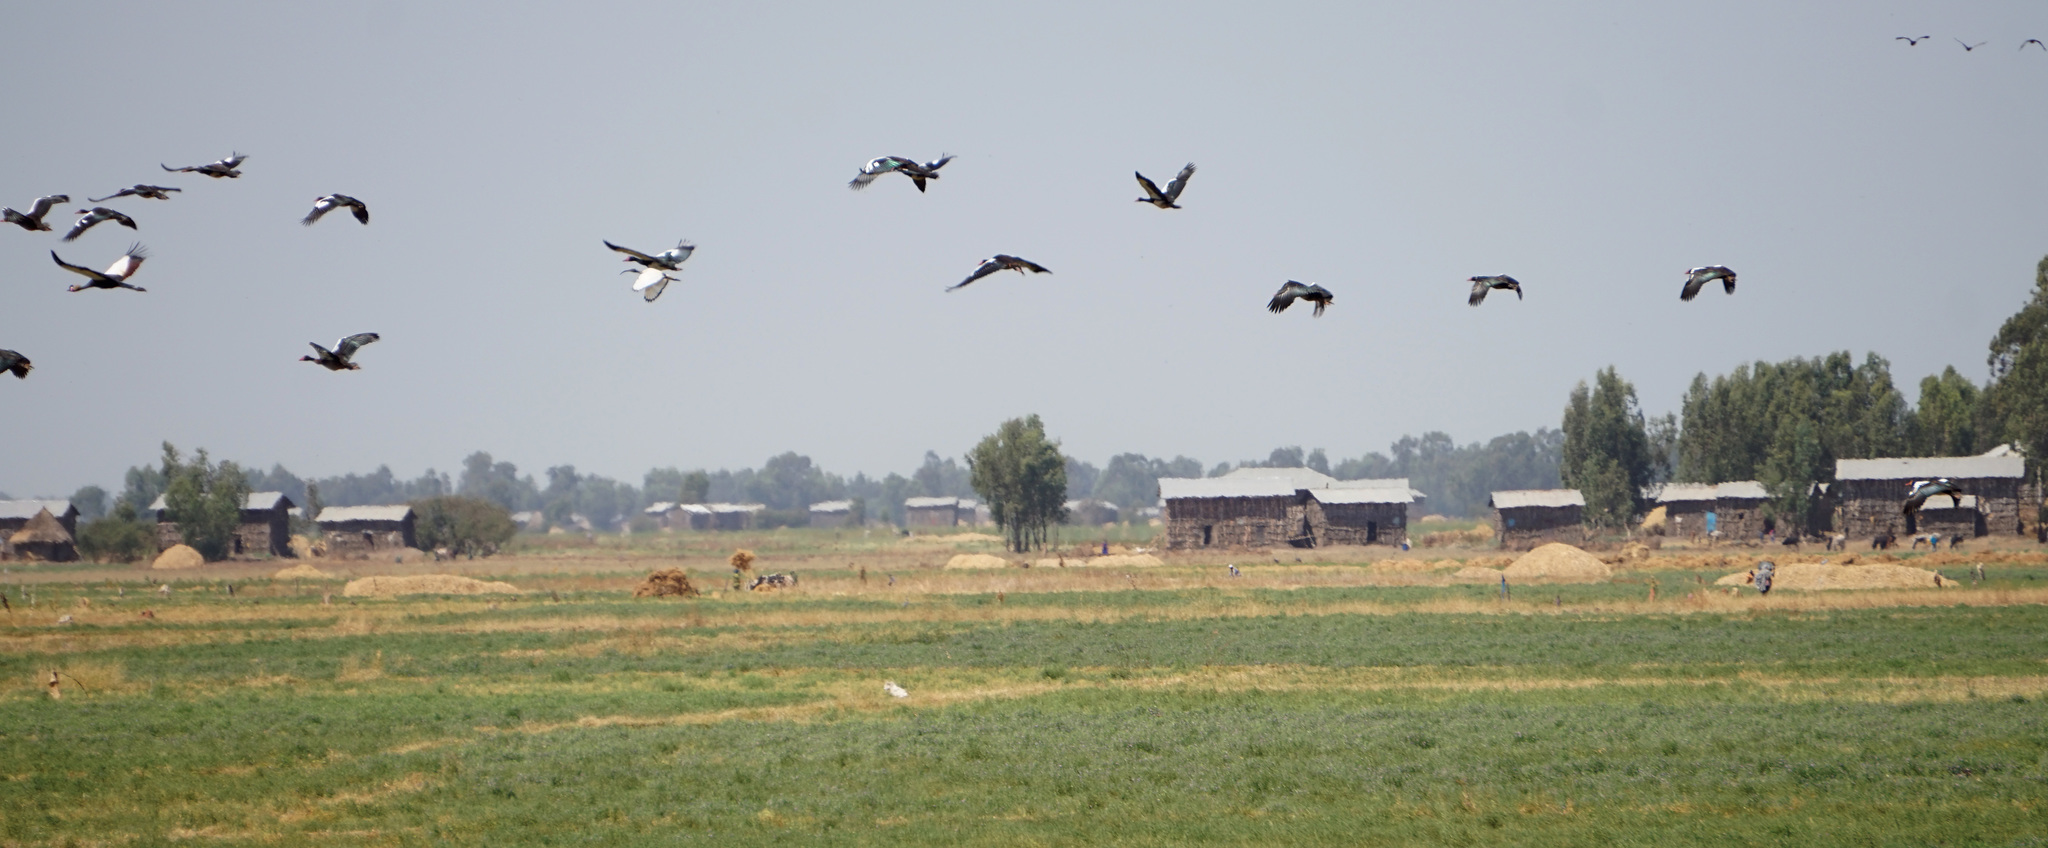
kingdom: Animalia
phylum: Chordata
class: Aves
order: Anseriformes
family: Anatidae
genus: Plectropterus
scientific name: Plectropterus gambensis
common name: Spur-winged goose
